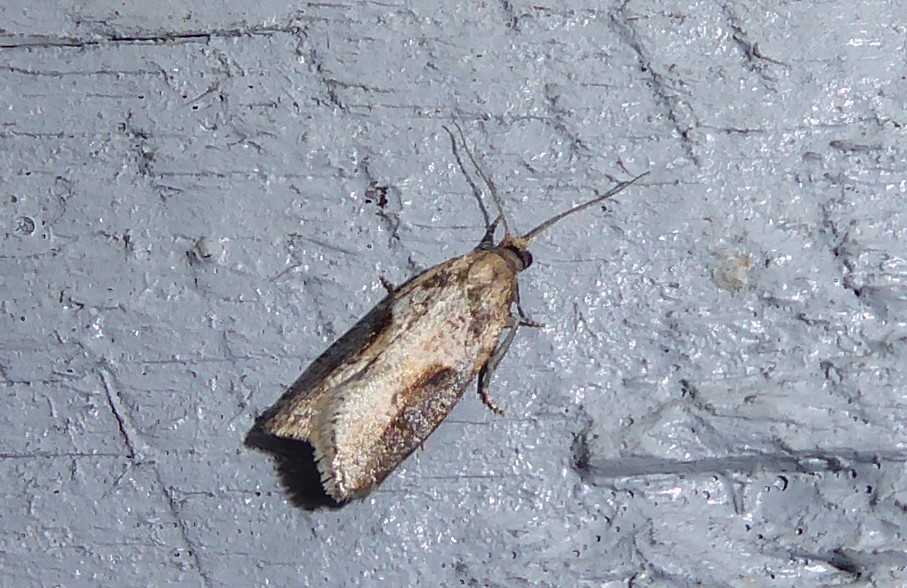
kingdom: Animalia
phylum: Arthropoda
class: Insecta
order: Lepidoptera
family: Tortricidae
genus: Capua
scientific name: Capua semiferana
